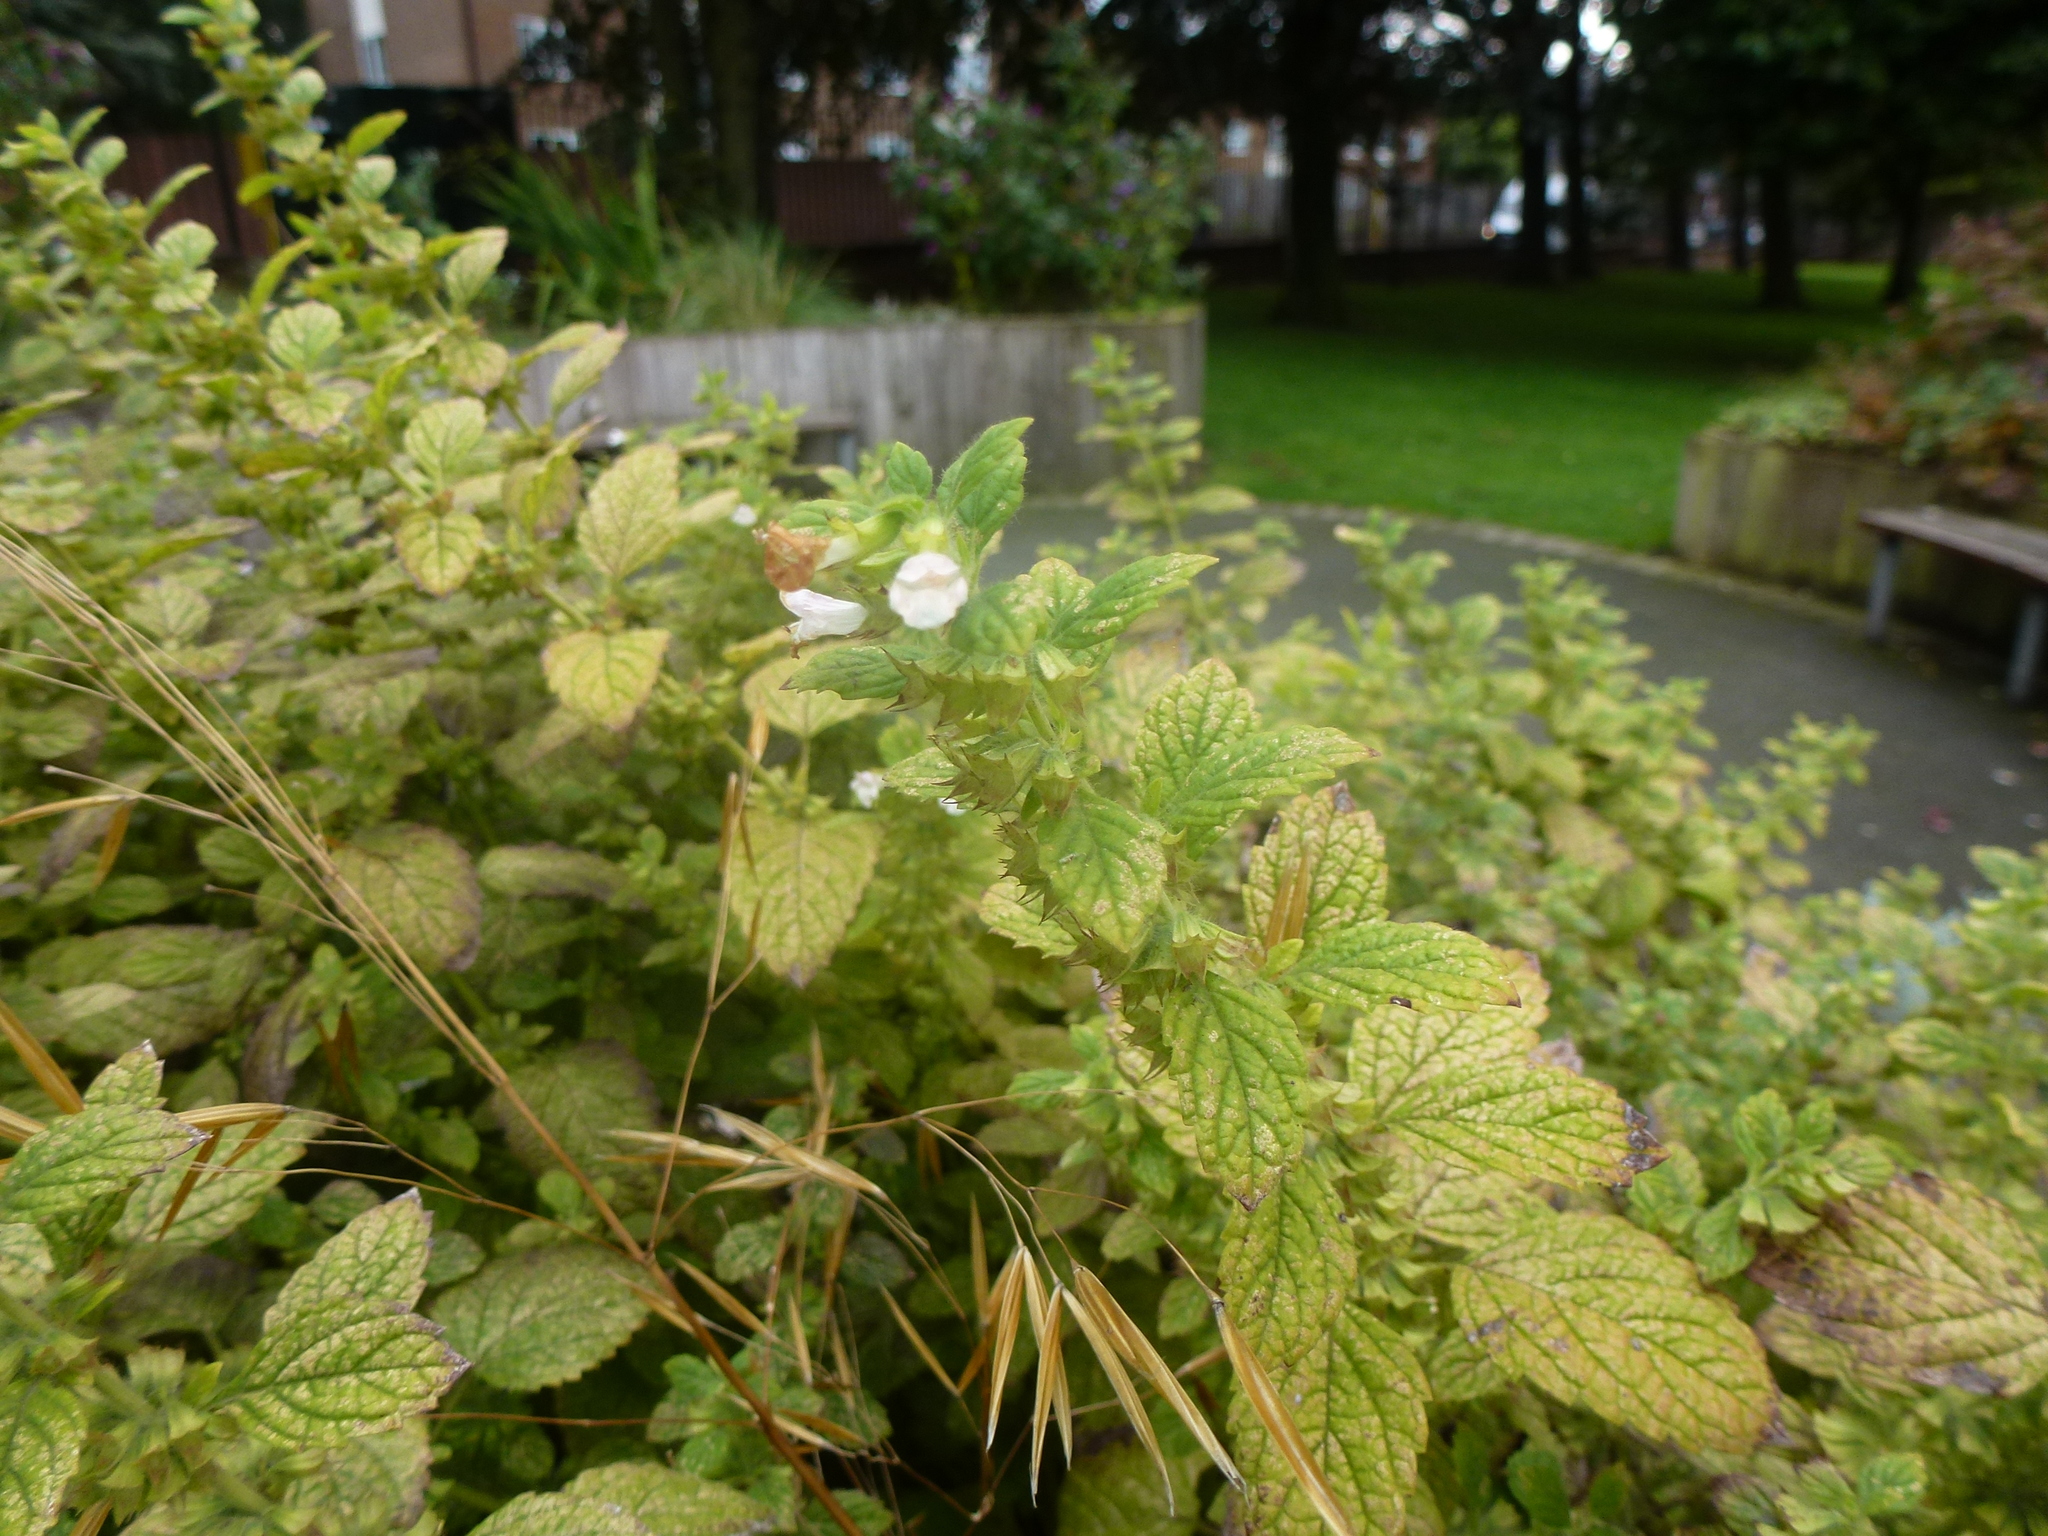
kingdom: Plantae
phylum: Tracheophyta
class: Magnoliopsida
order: Lamiales
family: Lamiaceae
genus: Melissa
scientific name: Melissa officinalis
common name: Balm
